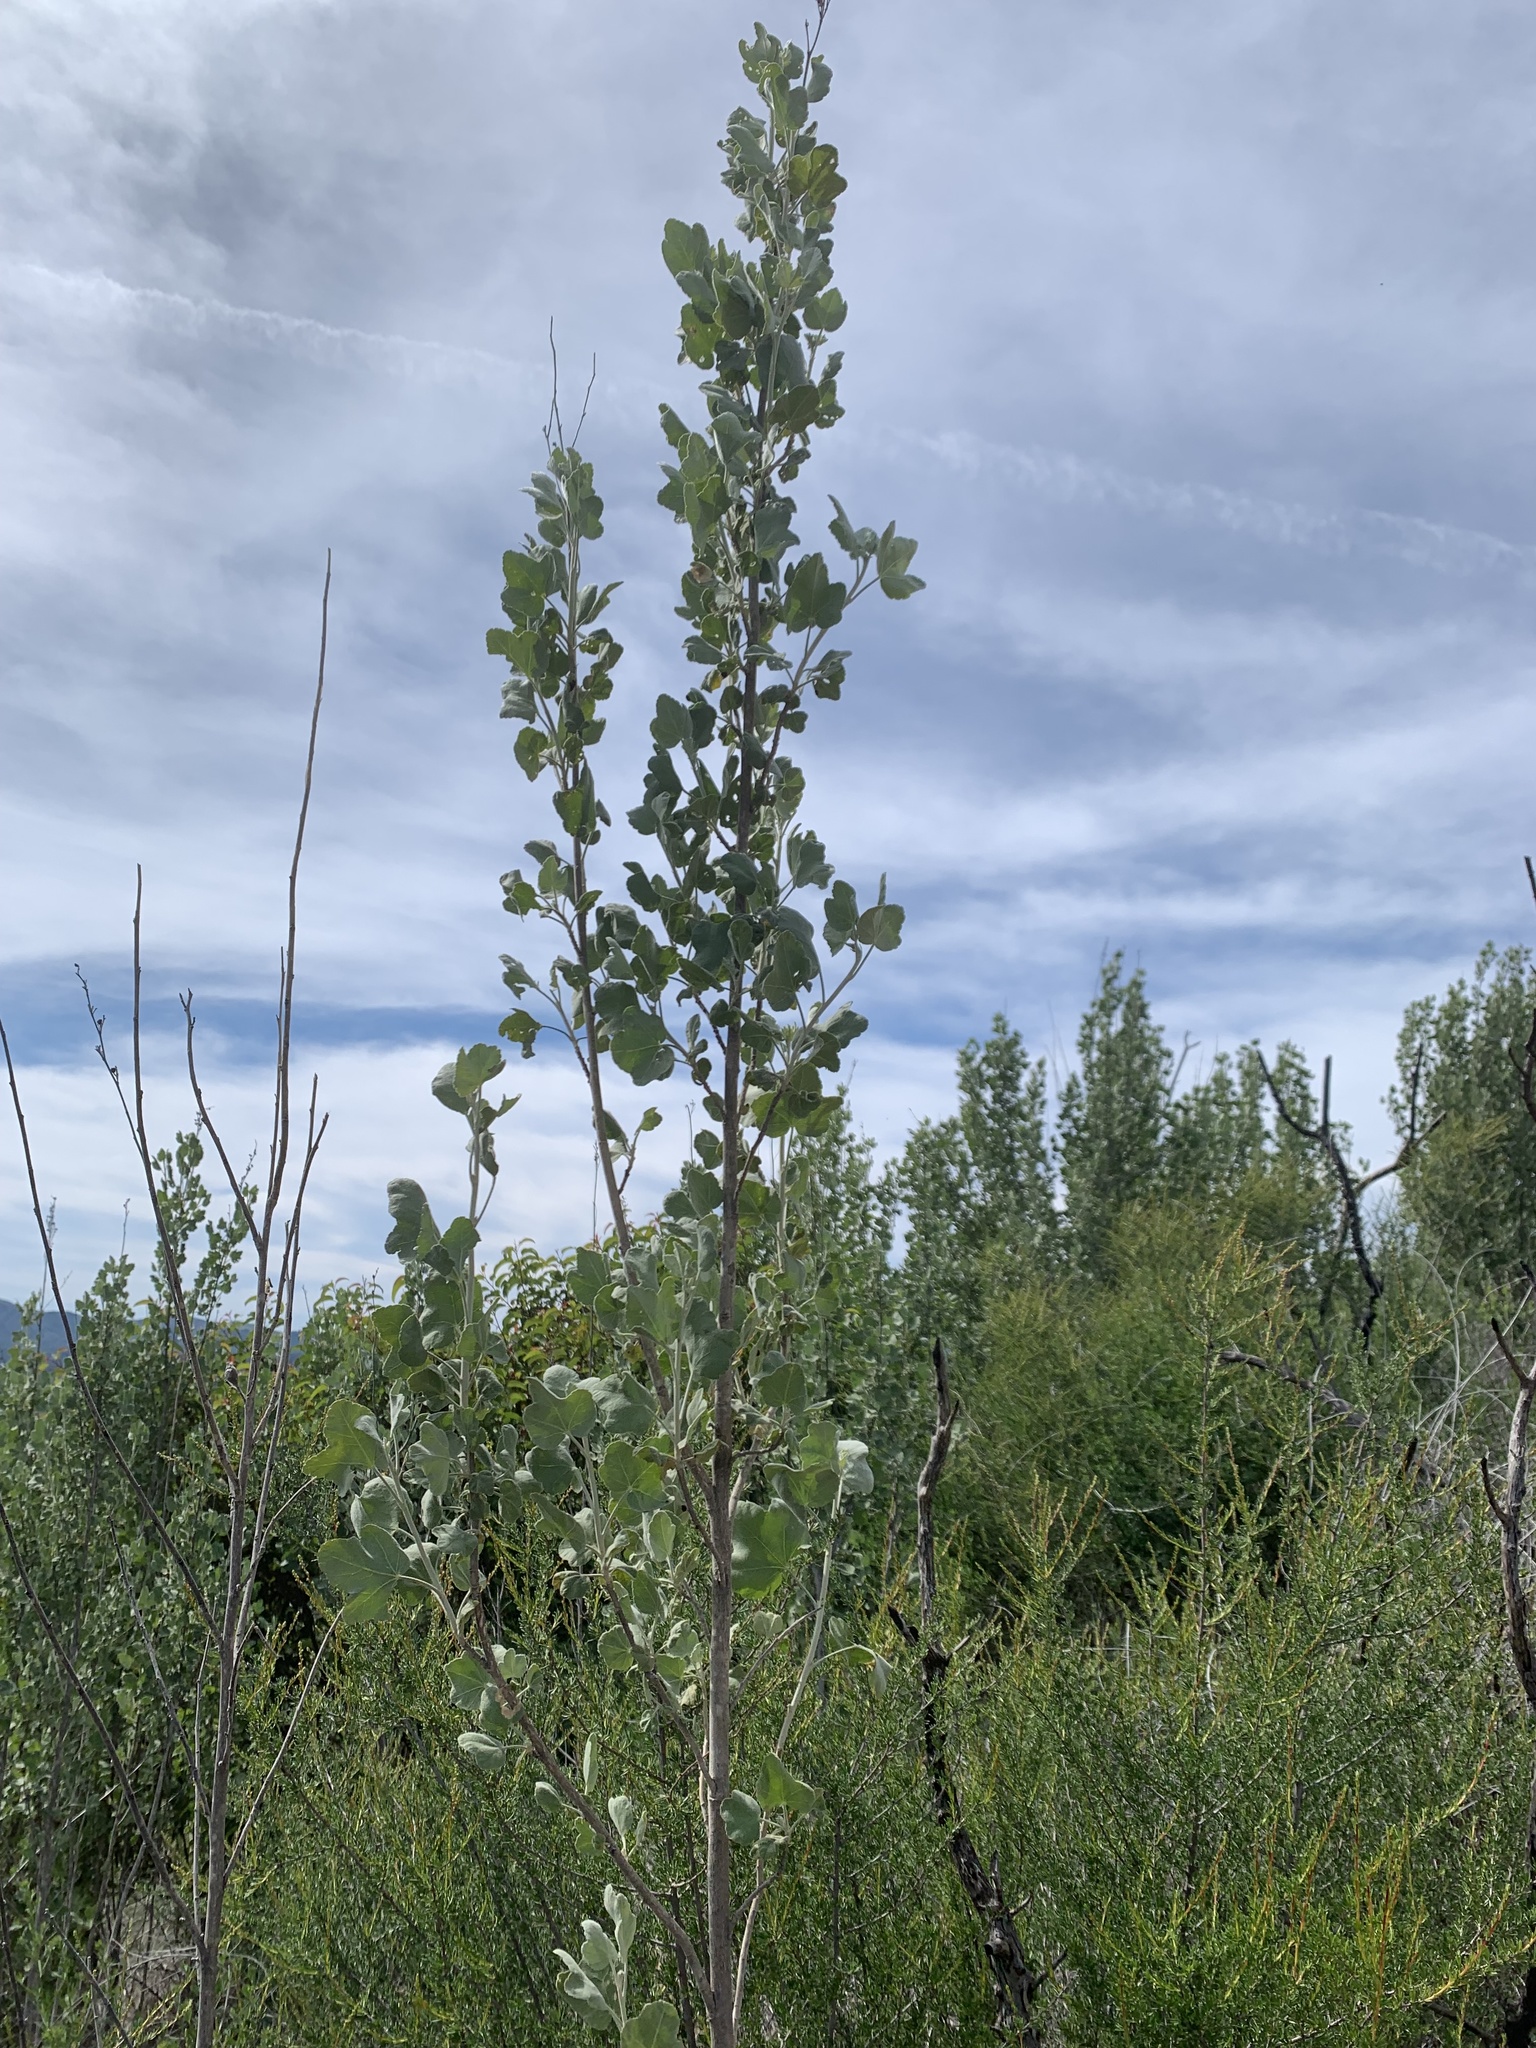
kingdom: Plantae
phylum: Tracheophyta
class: Magnoliopsida
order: Malvales
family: Malvaceae
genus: Malacothamnus
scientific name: Malacothamnus fasciculatus
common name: Sant cruz island bush-mallow
